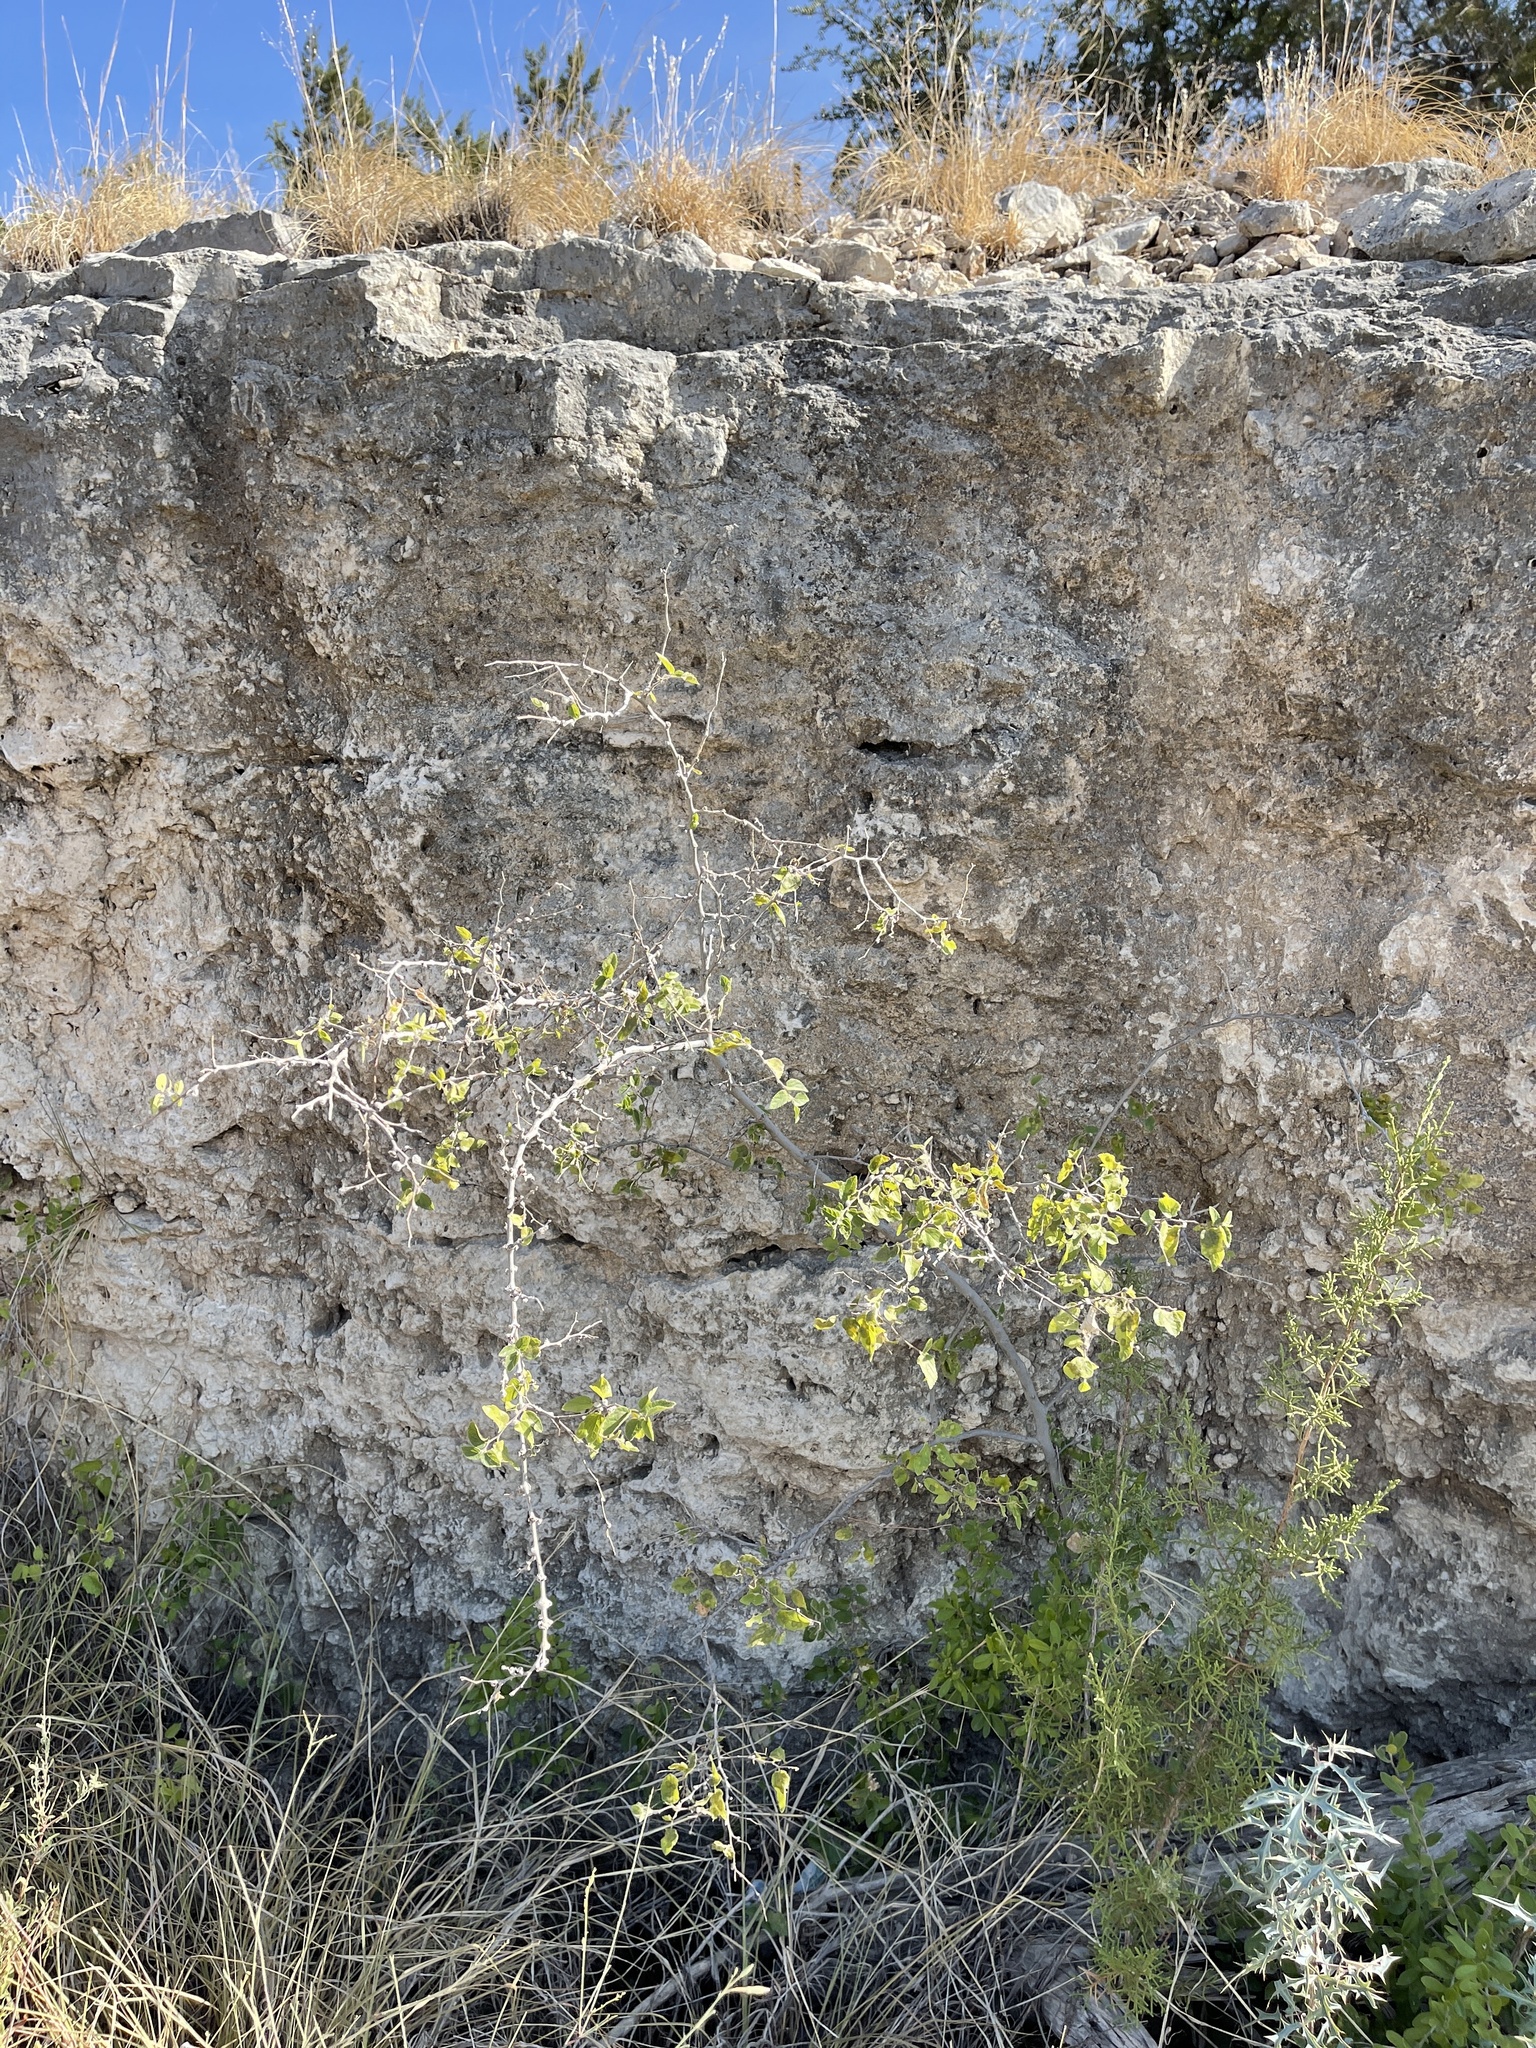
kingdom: Plantae
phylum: Tracheophyta
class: Magnoliopsida
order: Rosales
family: Cannabaceae
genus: Celtis
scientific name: Celtis reticulata
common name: Netleaf hackberry
